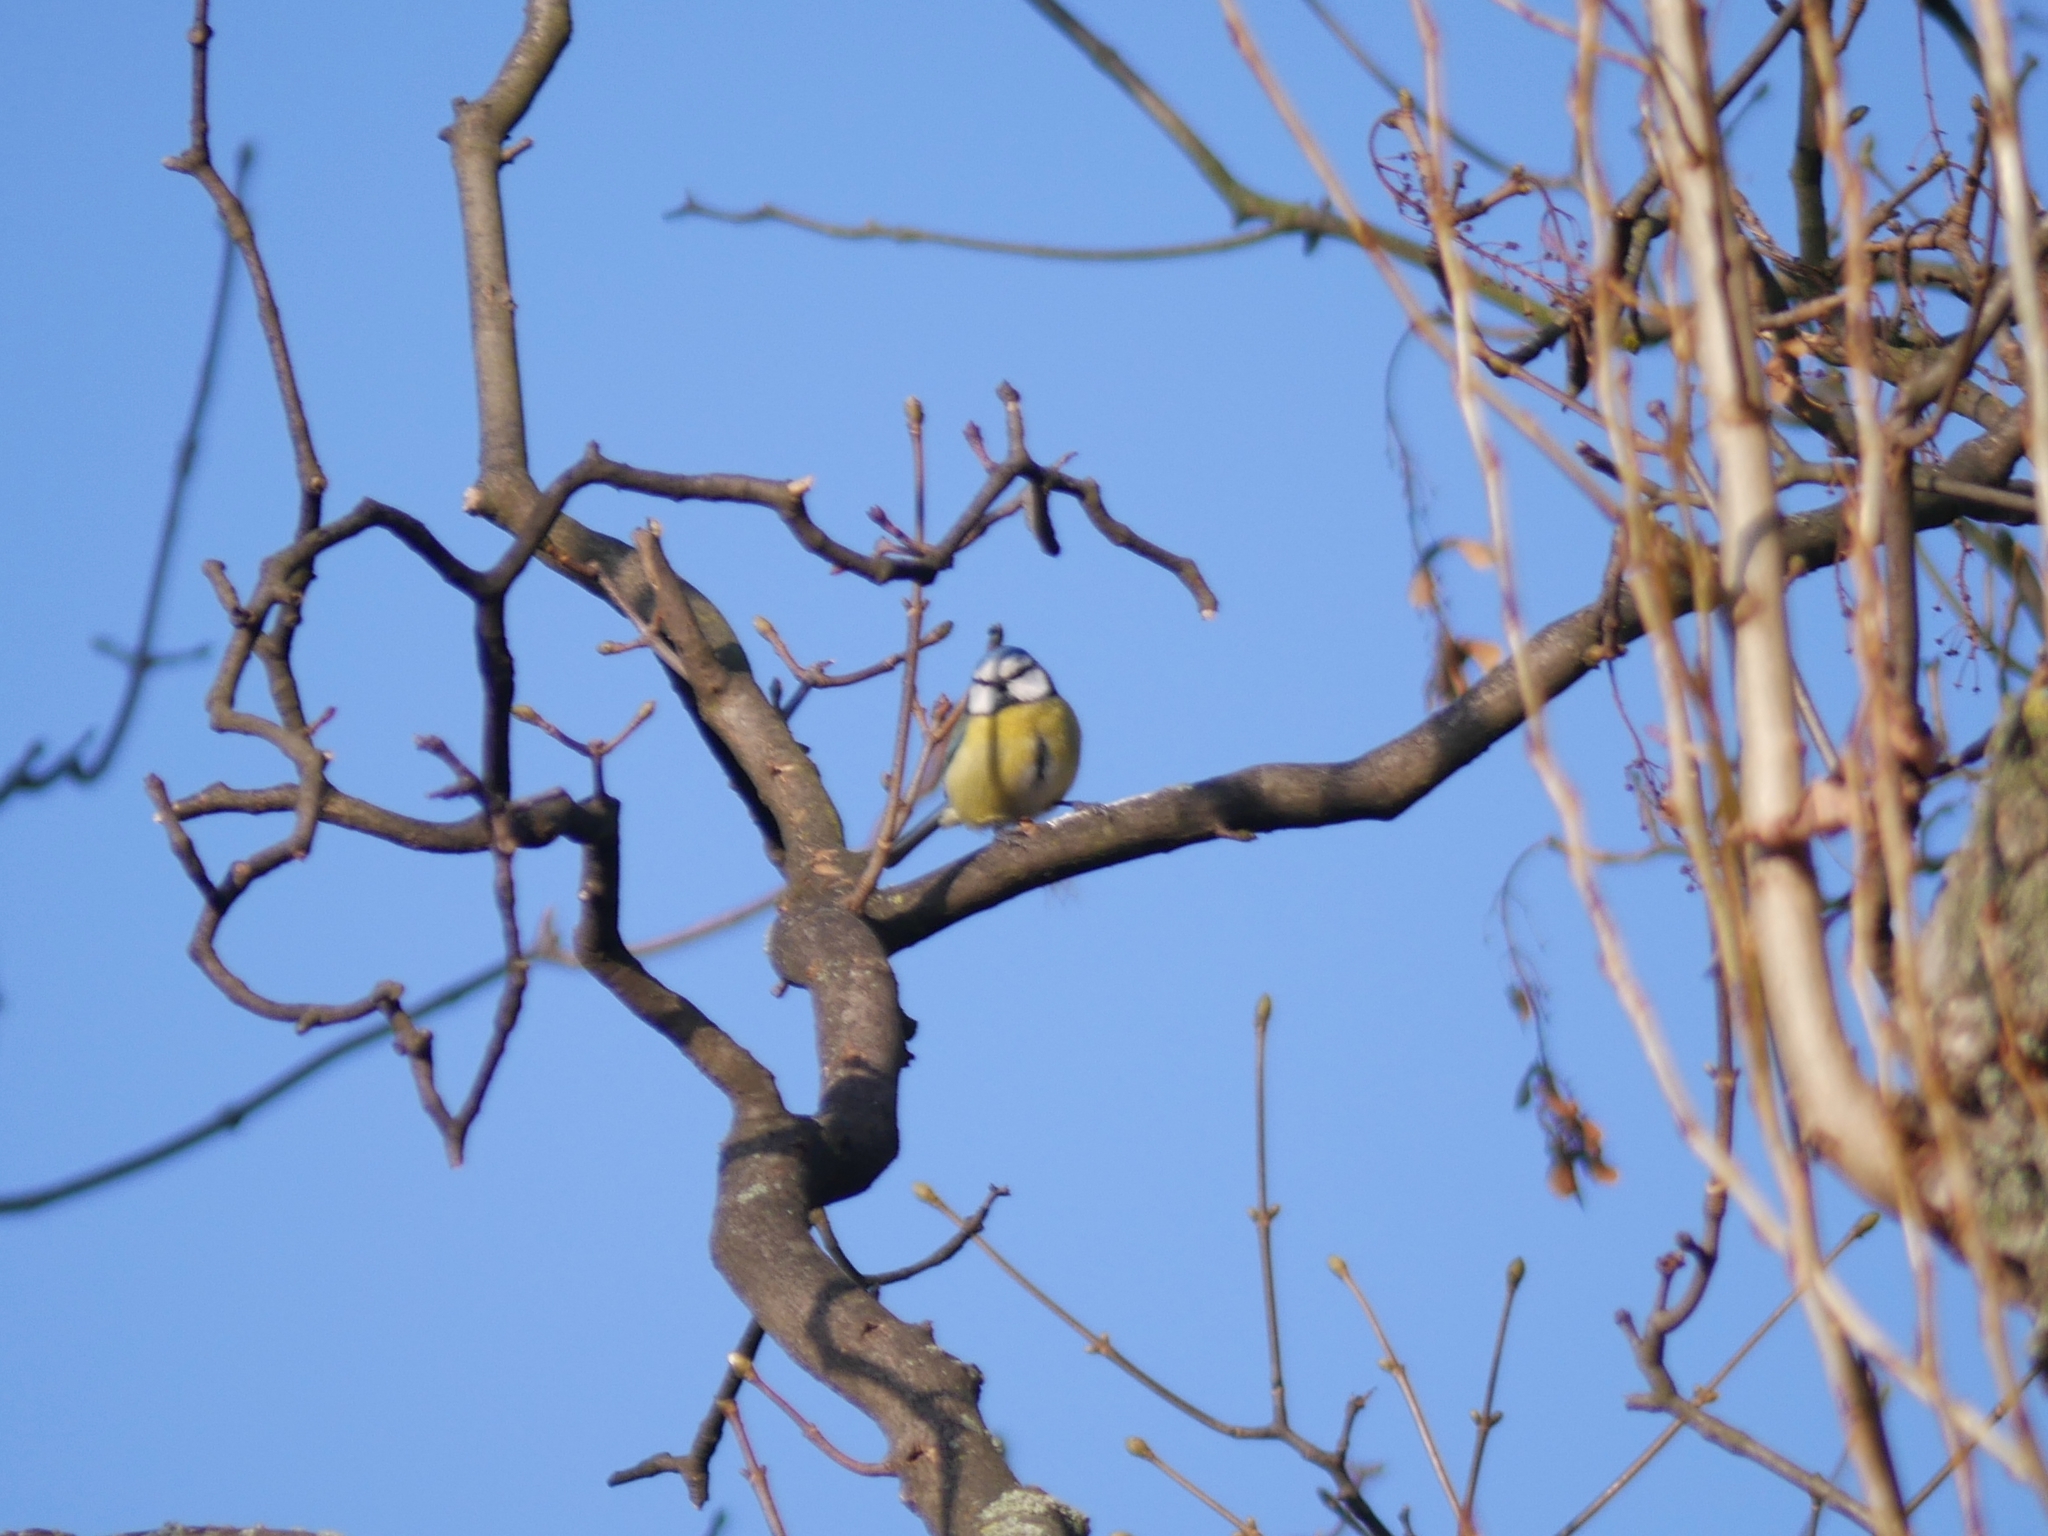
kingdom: Animalia
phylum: Chordata
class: Aves
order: Passeriformes
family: Paridae
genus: Cyanistes
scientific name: Cyanistes caeruleus
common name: Eurasian blue tit
